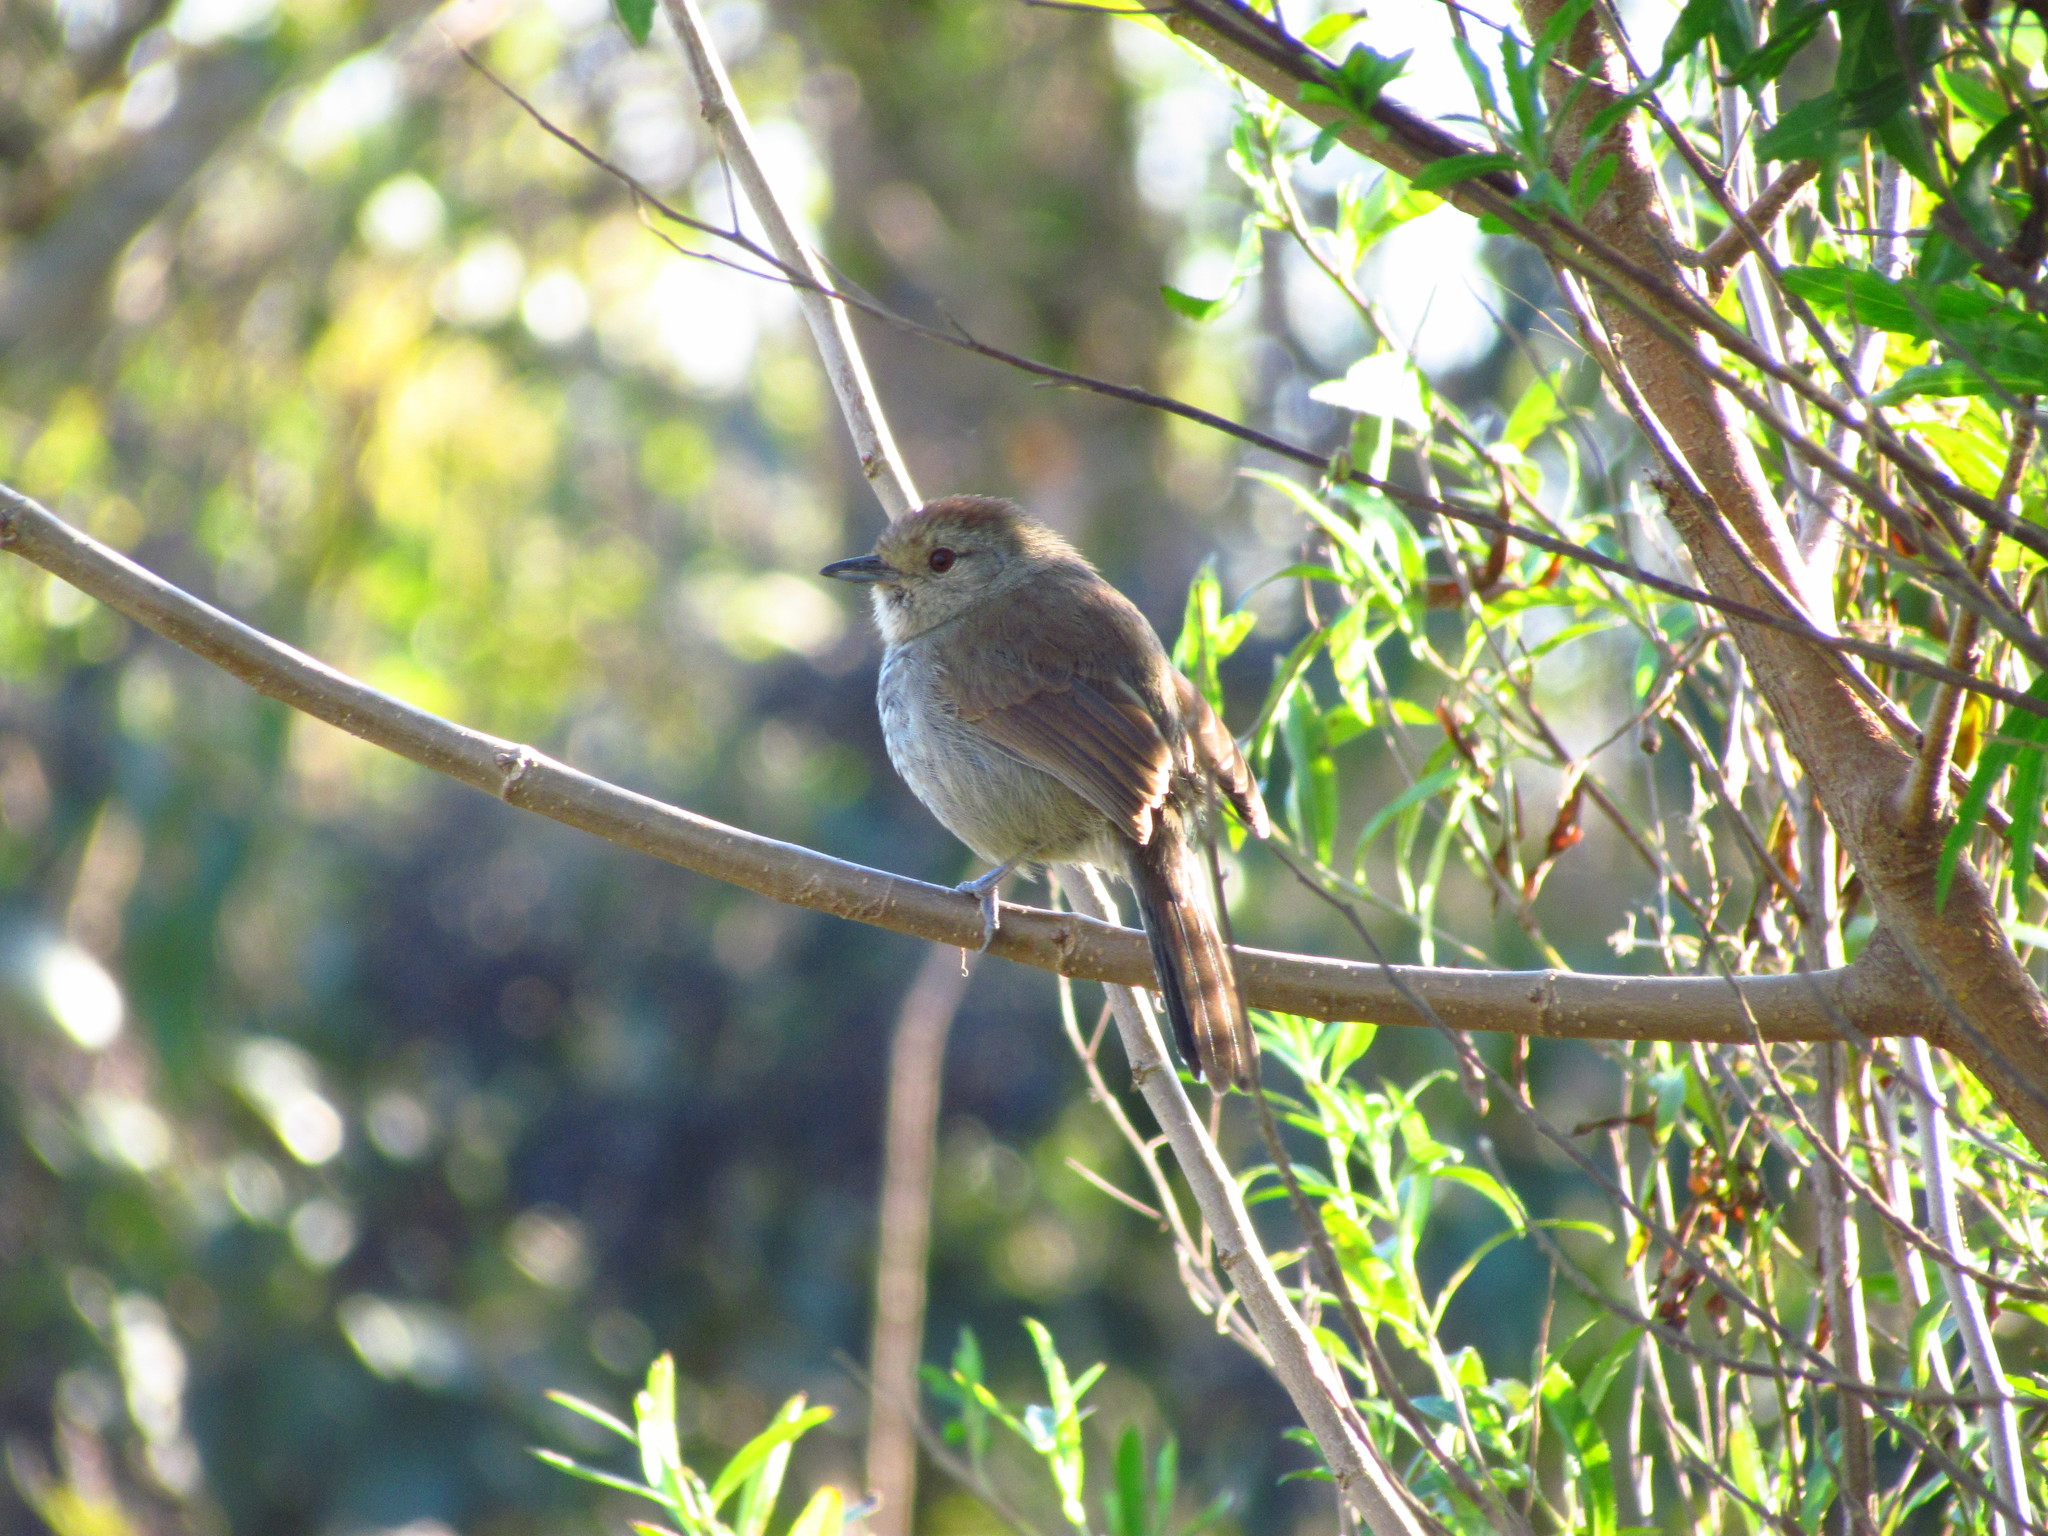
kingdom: Animalia
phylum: Chordata
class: Aves
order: Passeriformes
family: Thamnophilidae
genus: Thamnophilus
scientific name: Thamnophilus ruficapillus
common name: Rufous-capped antshrike
